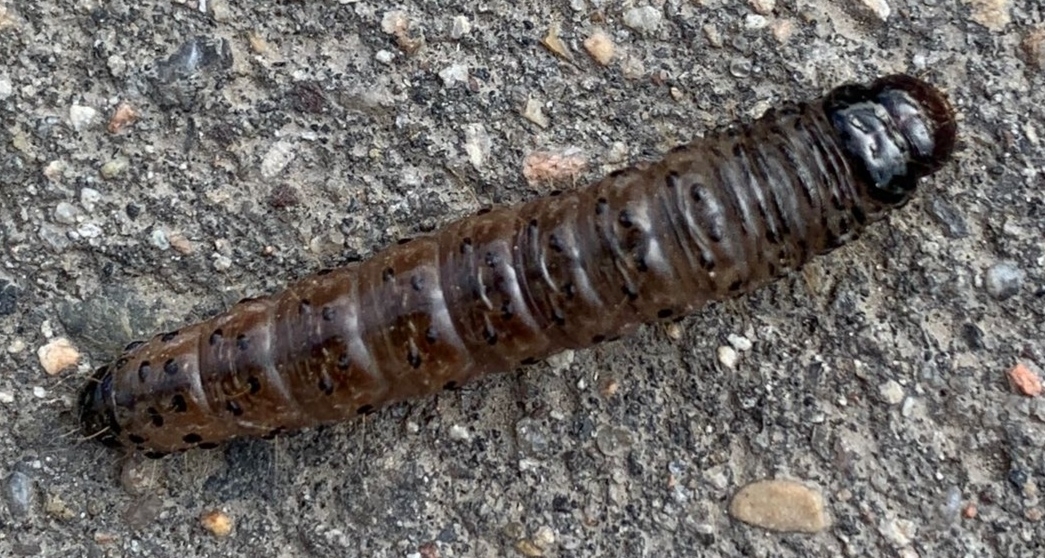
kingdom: Animalia
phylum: Arthropoda
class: Insecta
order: Lepidoptera
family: Cossidae
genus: Zeuzera
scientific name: Zeuzera pyrina
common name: Leopard moth
